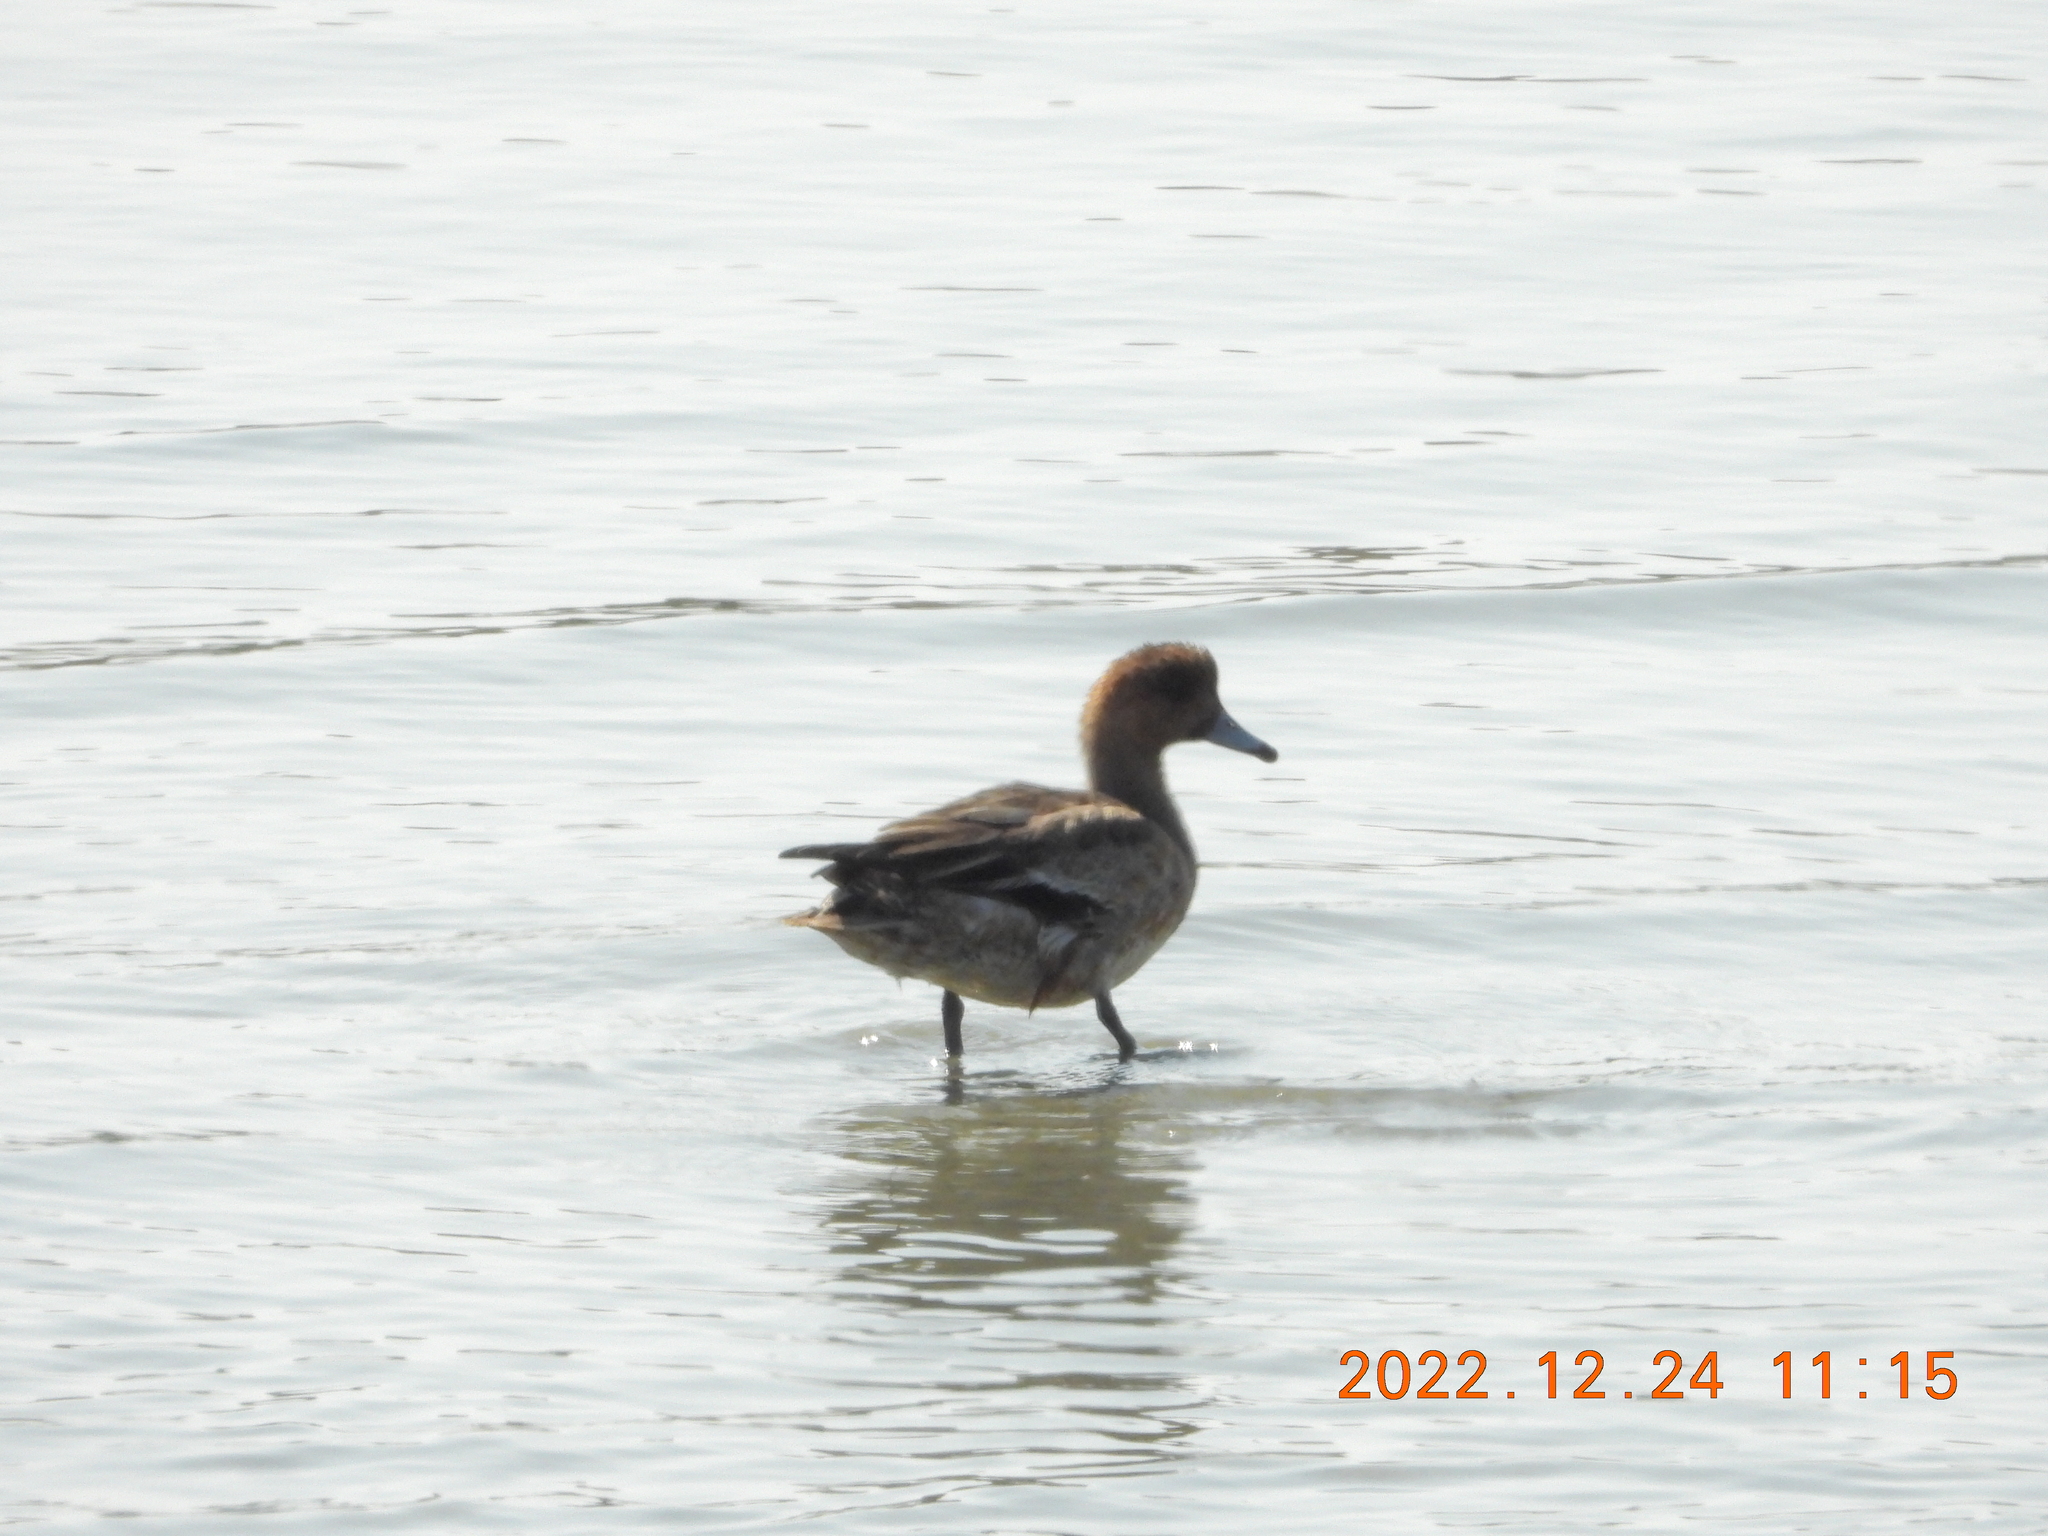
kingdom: Animalia
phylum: Chordata
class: Aves
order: Anseriformes
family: Anatidae
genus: Mareca
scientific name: Mareca penelope
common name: Eurasian wigeon
